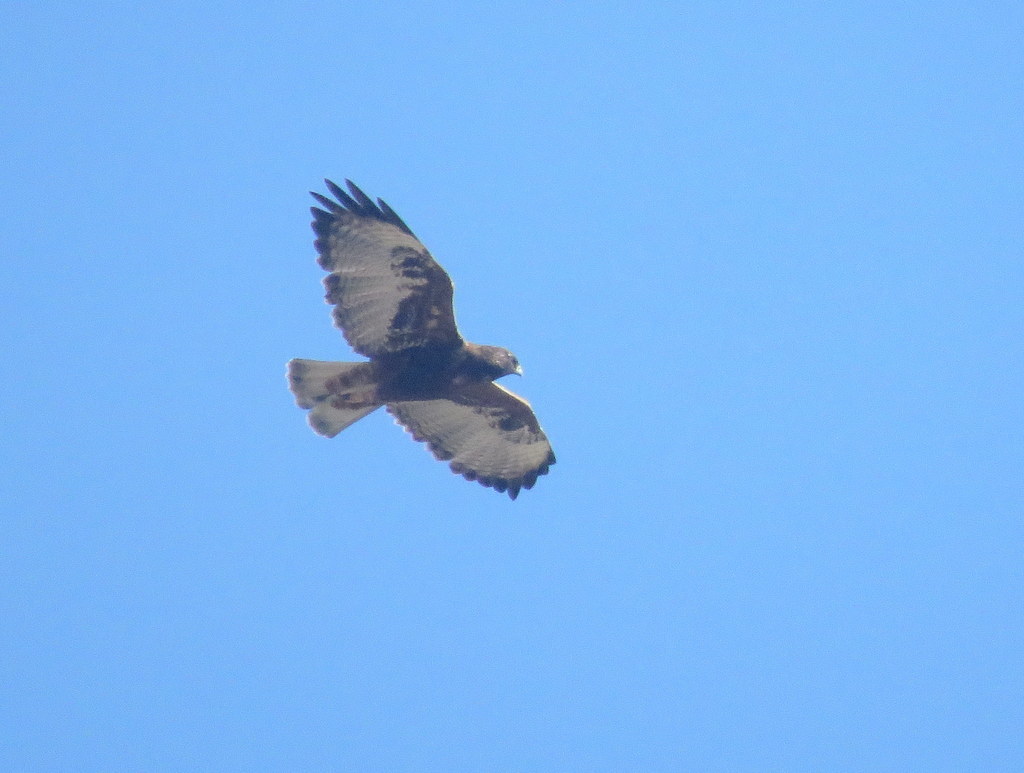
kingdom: Animalia
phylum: Chordata
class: Aves
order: Accipitriformes
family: Accipitridae
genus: Buteo
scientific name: Buteo polyosoma
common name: Variable hawk
